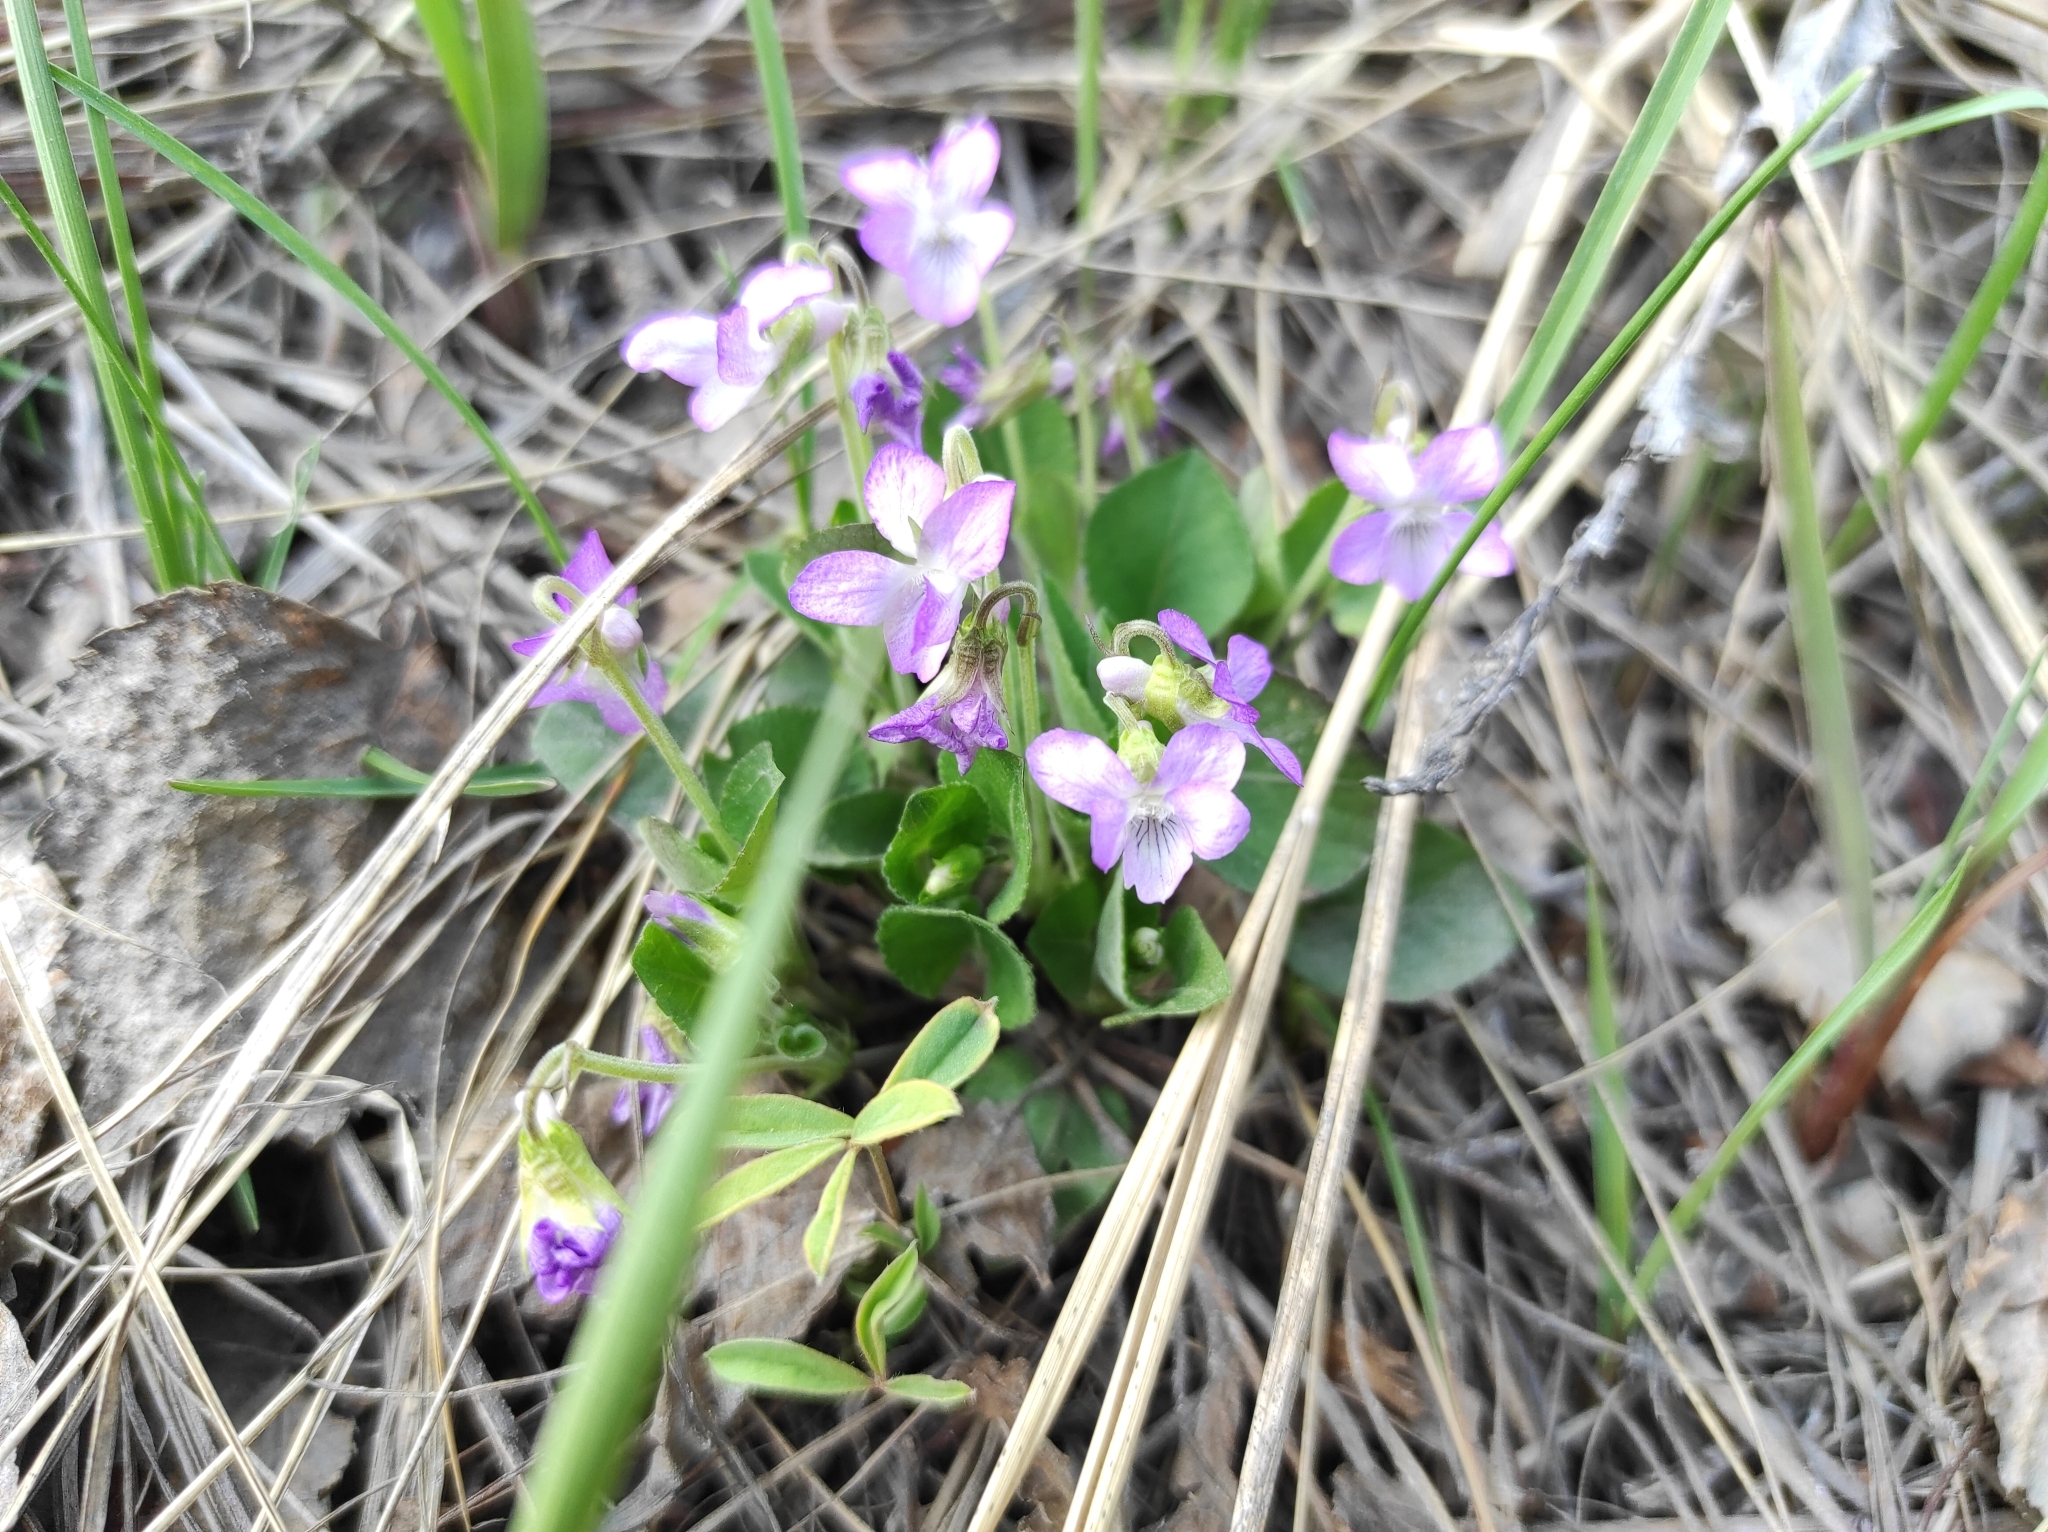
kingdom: Plantae
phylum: Tracheophyta
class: Magnoliopsida
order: Malpighiales
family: Violaceae
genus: Viola
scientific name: Viola rupestris
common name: Teesdale violet
